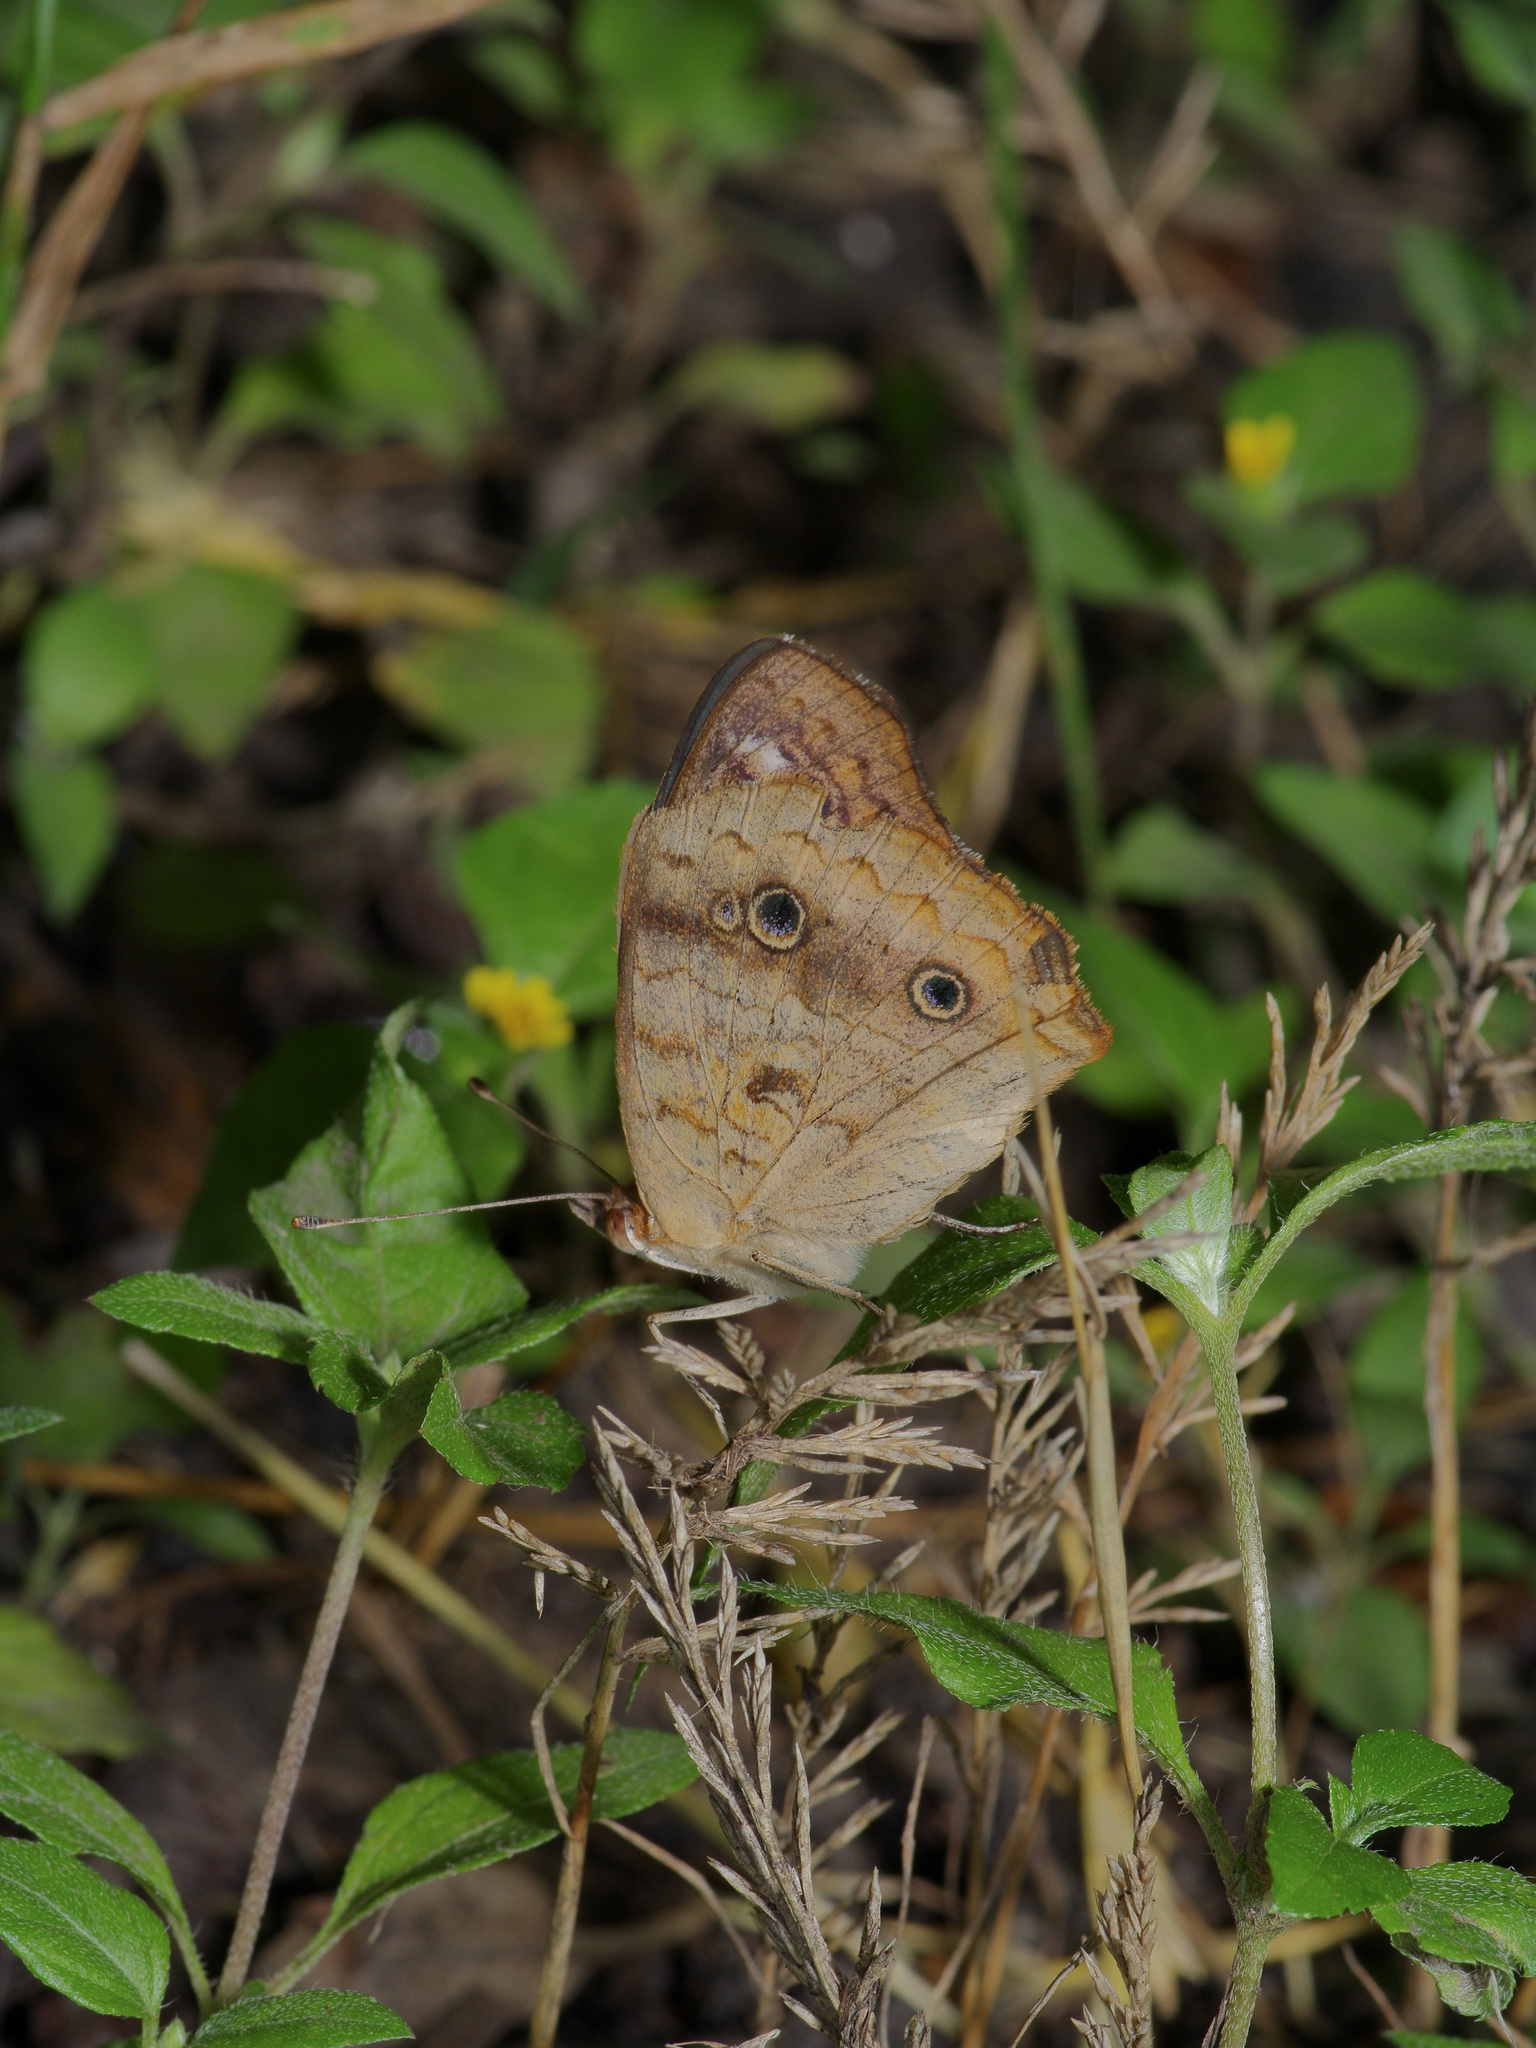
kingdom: Animalia
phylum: Arthropoda
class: Insecta
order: Lepidoptera
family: Nymphalidae
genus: Junonia
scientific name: Junonia coenia
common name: Common buckeye
